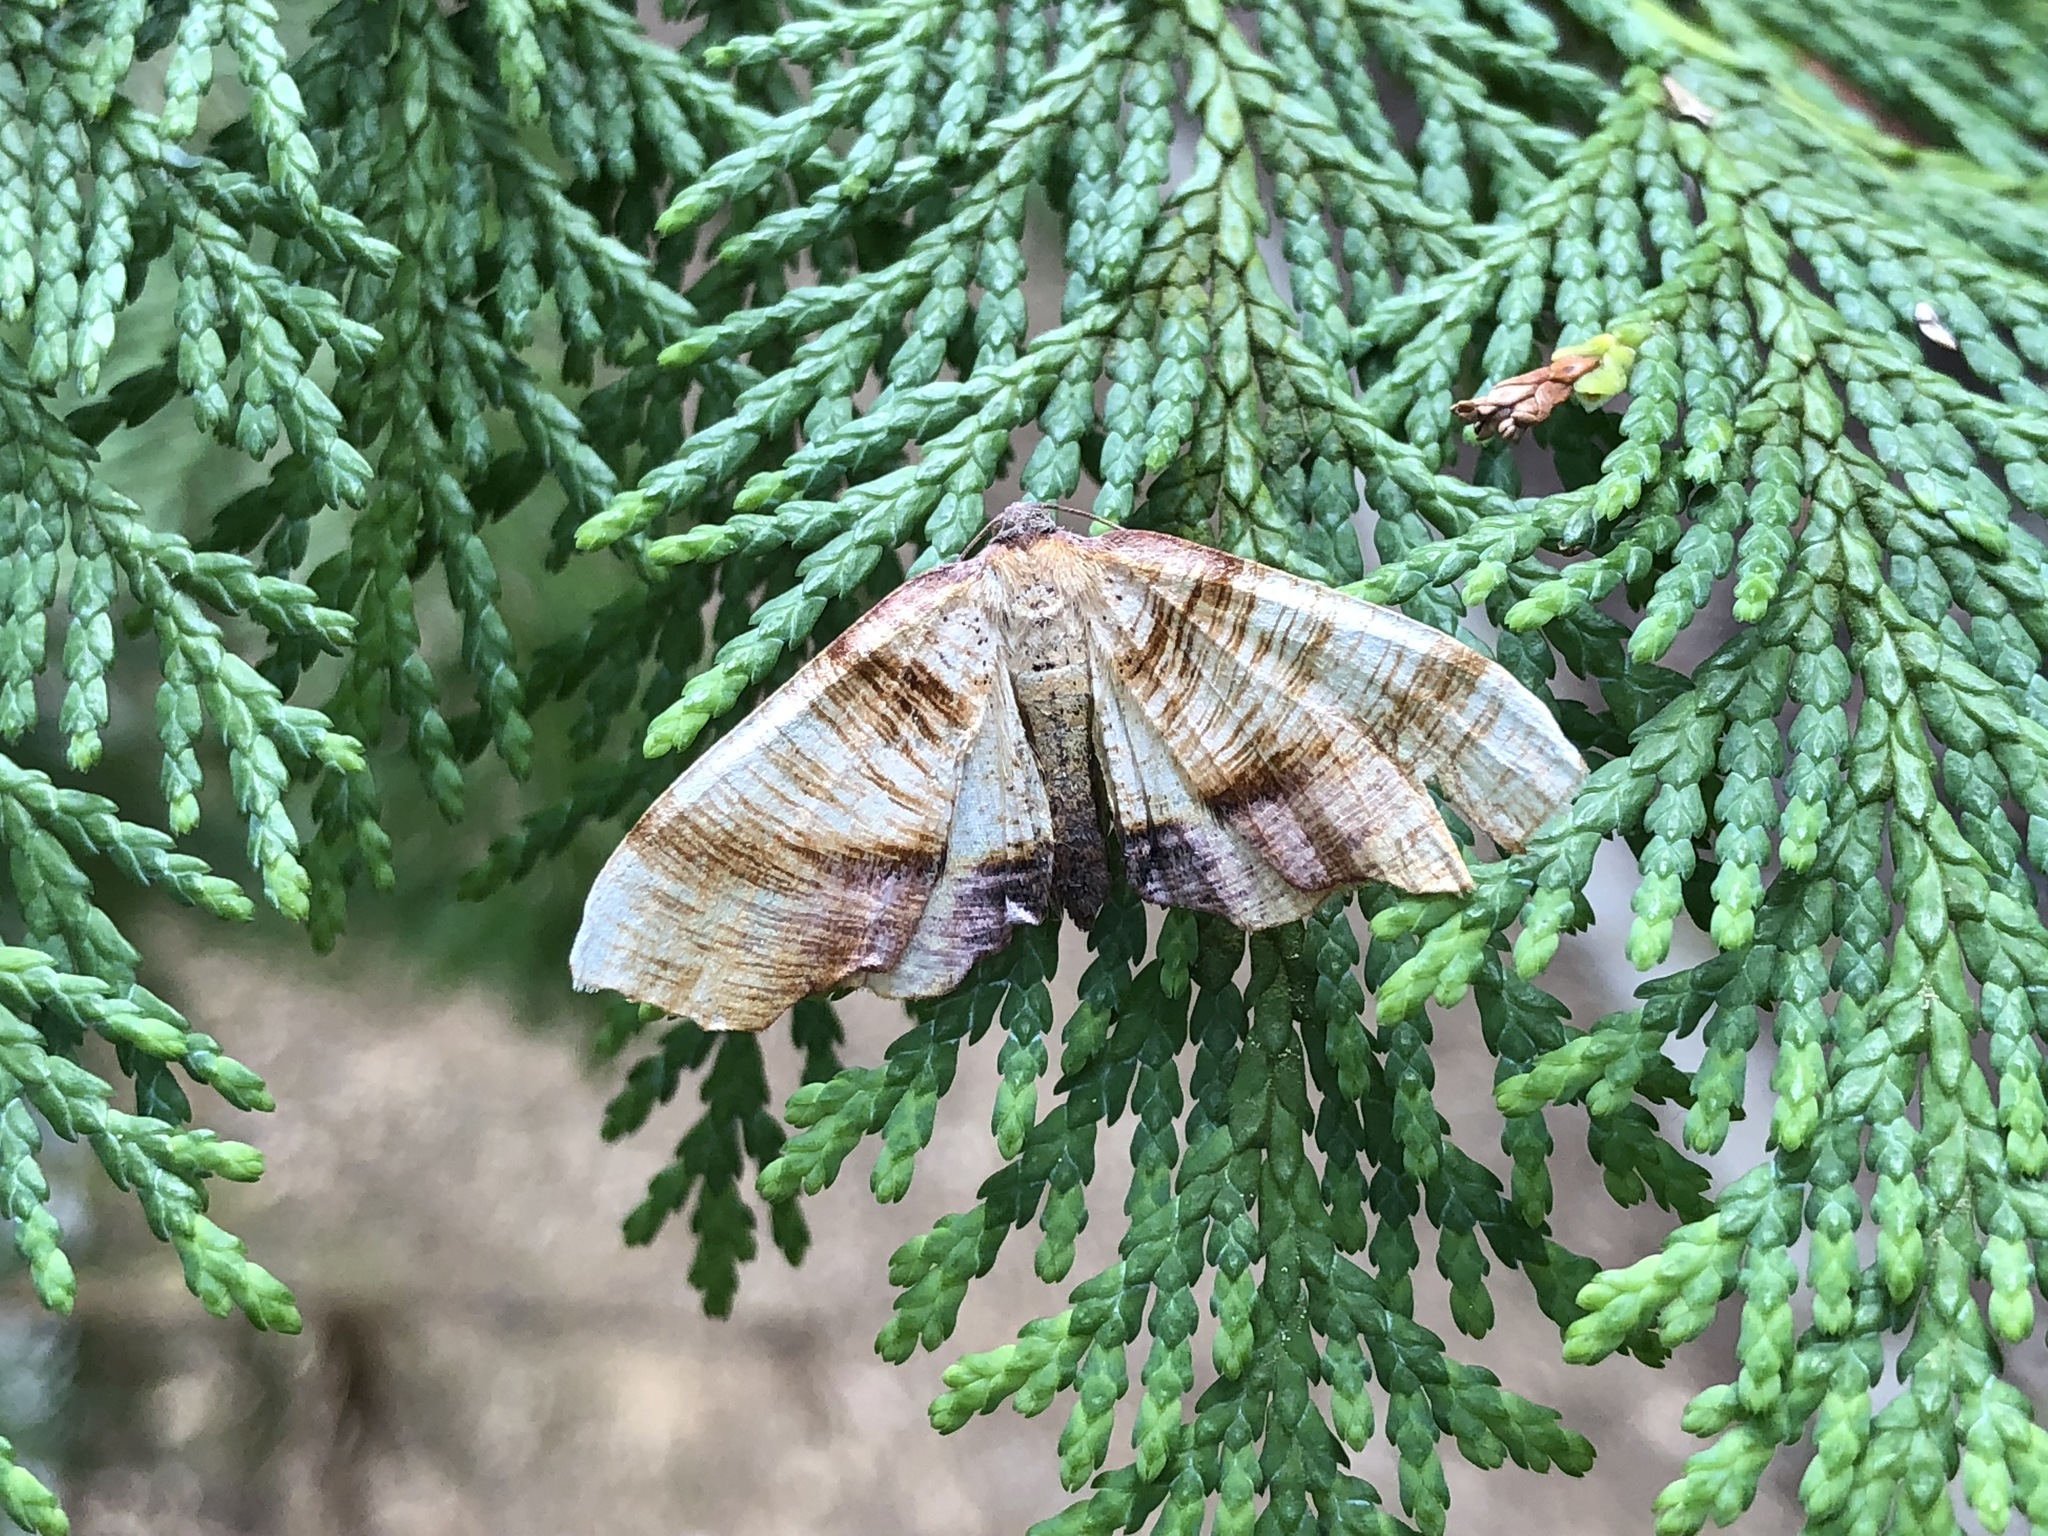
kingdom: Animalia
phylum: Arthropoda
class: Insecta
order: Lepidoptera
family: Geometridae
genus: Plagodis
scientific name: Plagodis dolabraria
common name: Scorched wing
